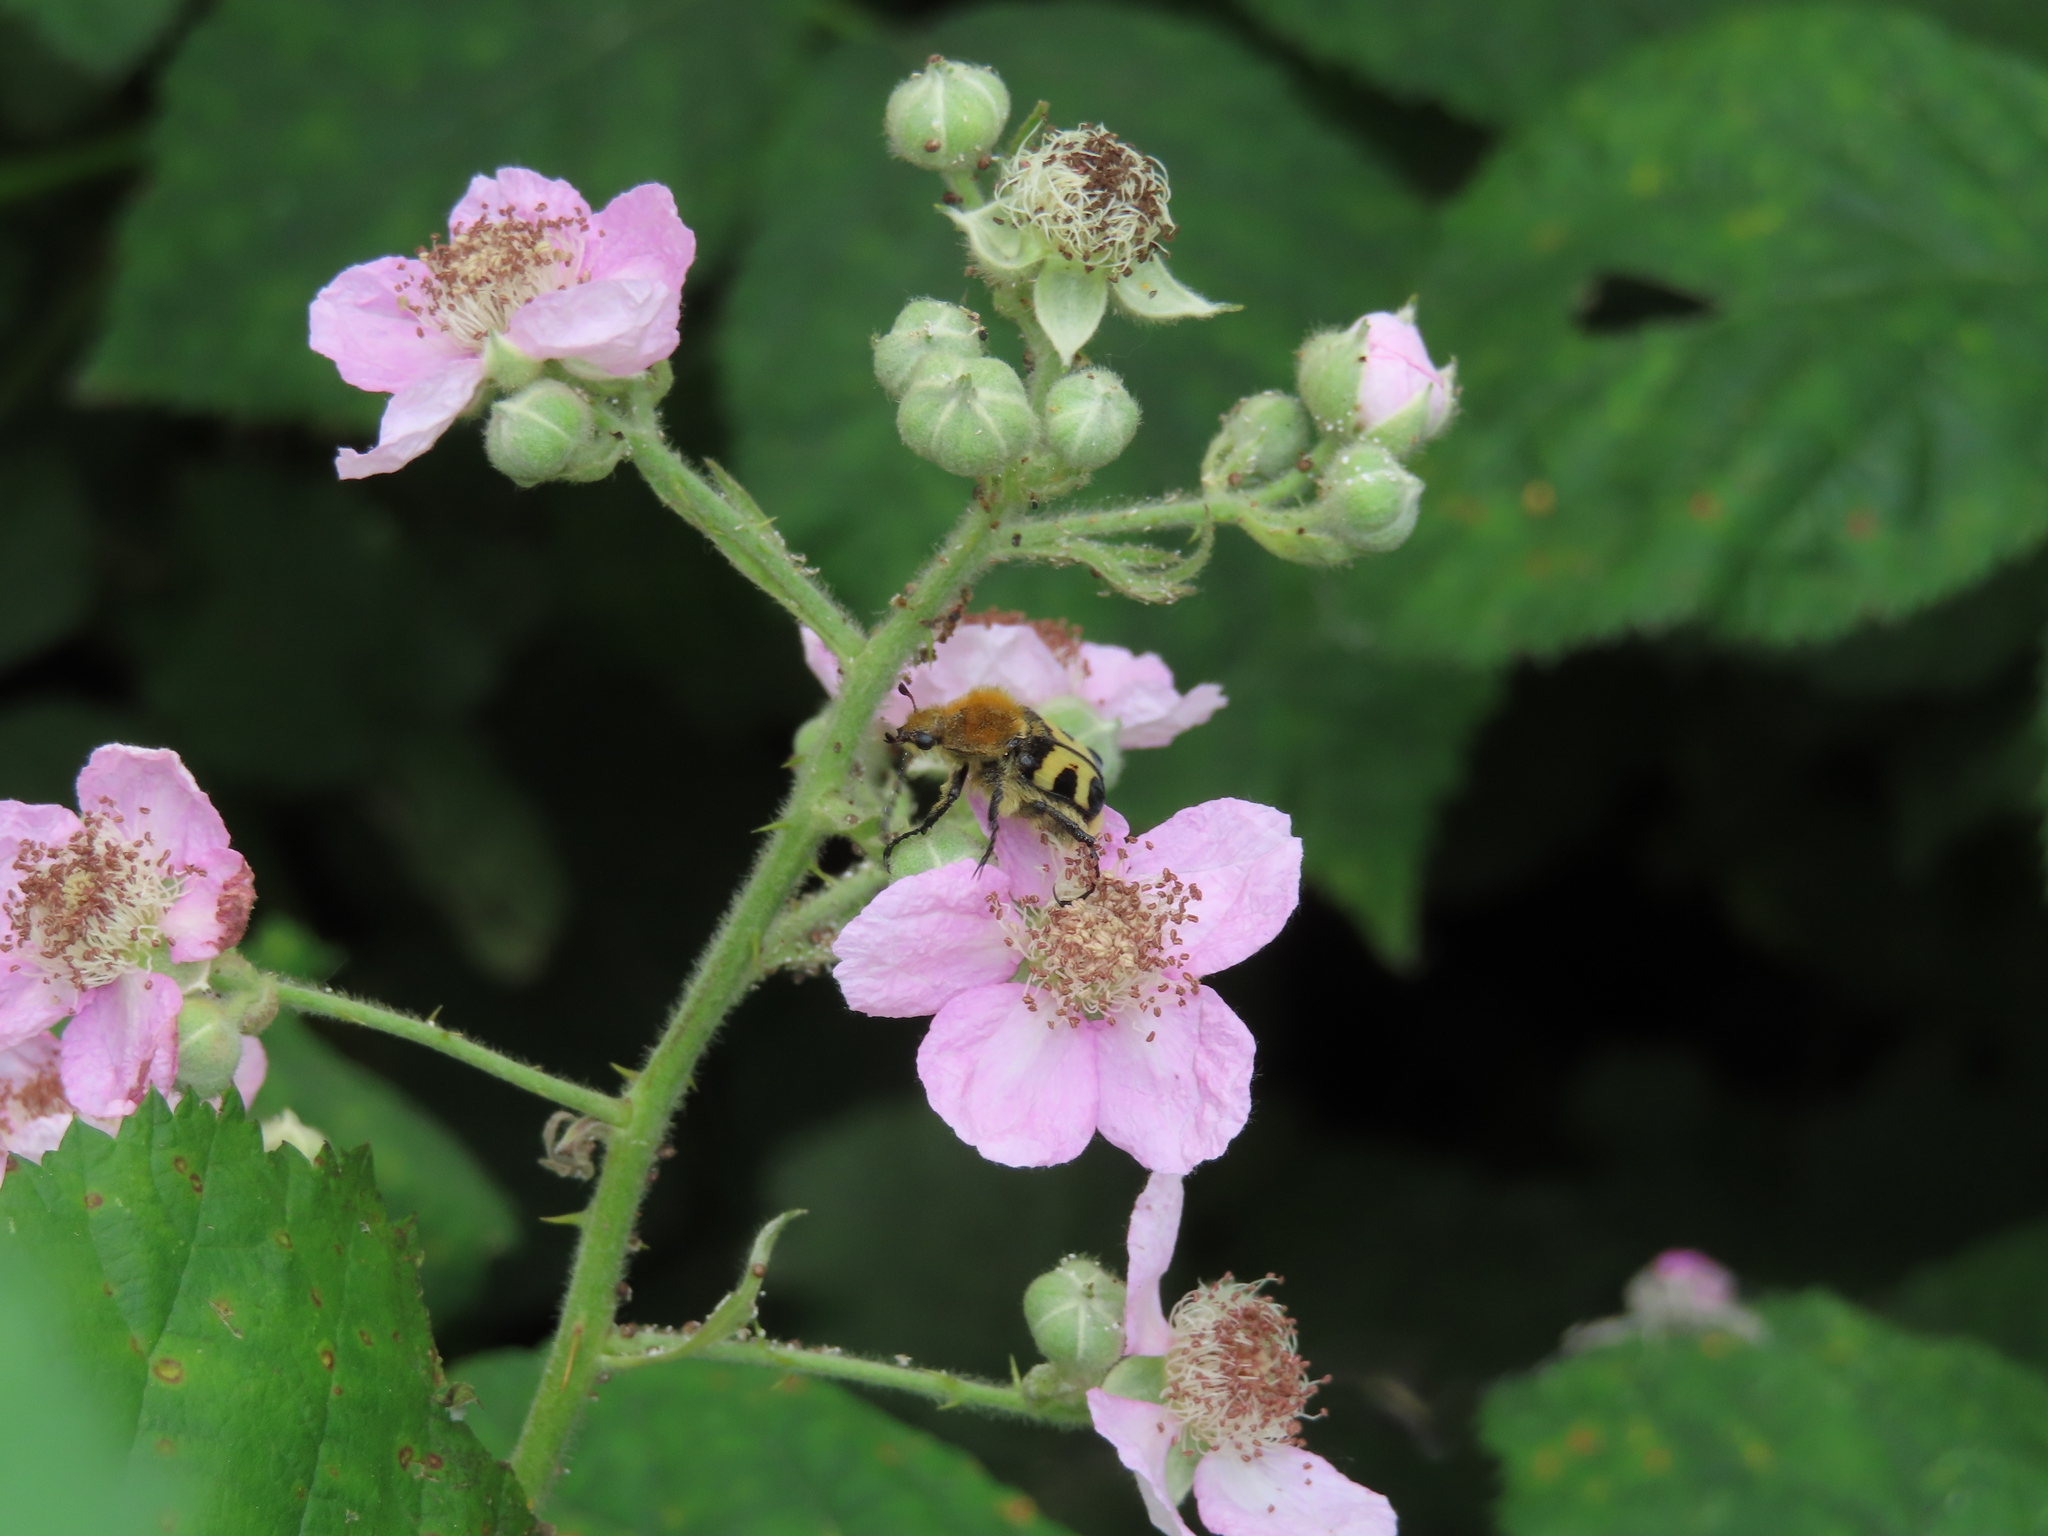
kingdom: Animalia
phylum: Arthropoda
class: Insecta
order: Coleoptera
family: Scarabaeidae
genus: Trichius
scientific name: Trichius fasciatus
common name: Bee beetle
